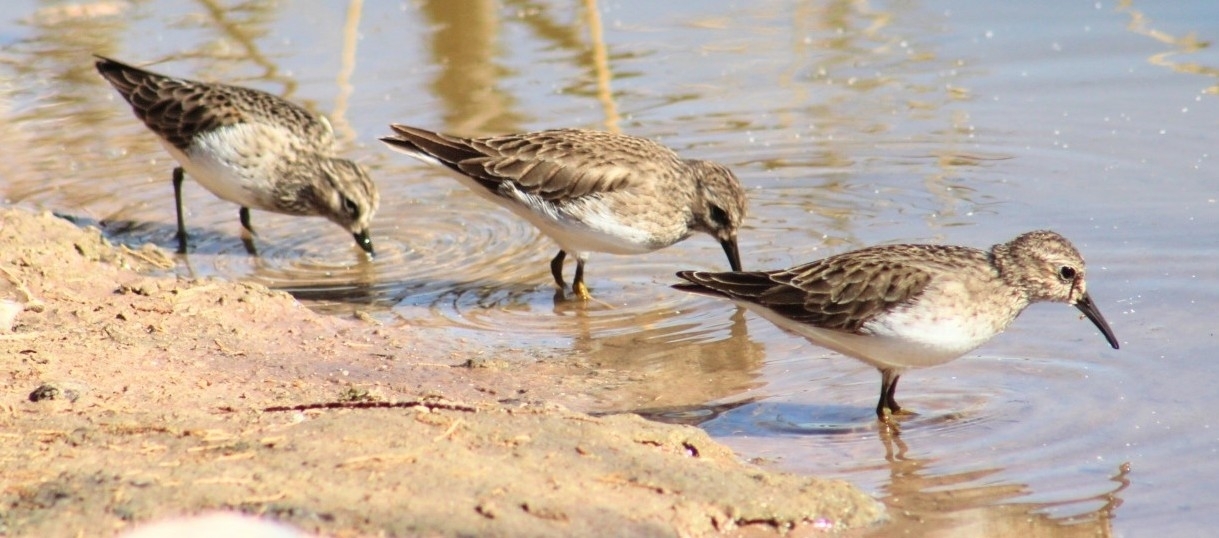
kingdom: Animalia
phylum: Chordata
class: Aves
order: Charadriiformes
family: Scolopacidae
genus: Calidris
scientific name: Calidris minutilla
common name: Least sandpiper
